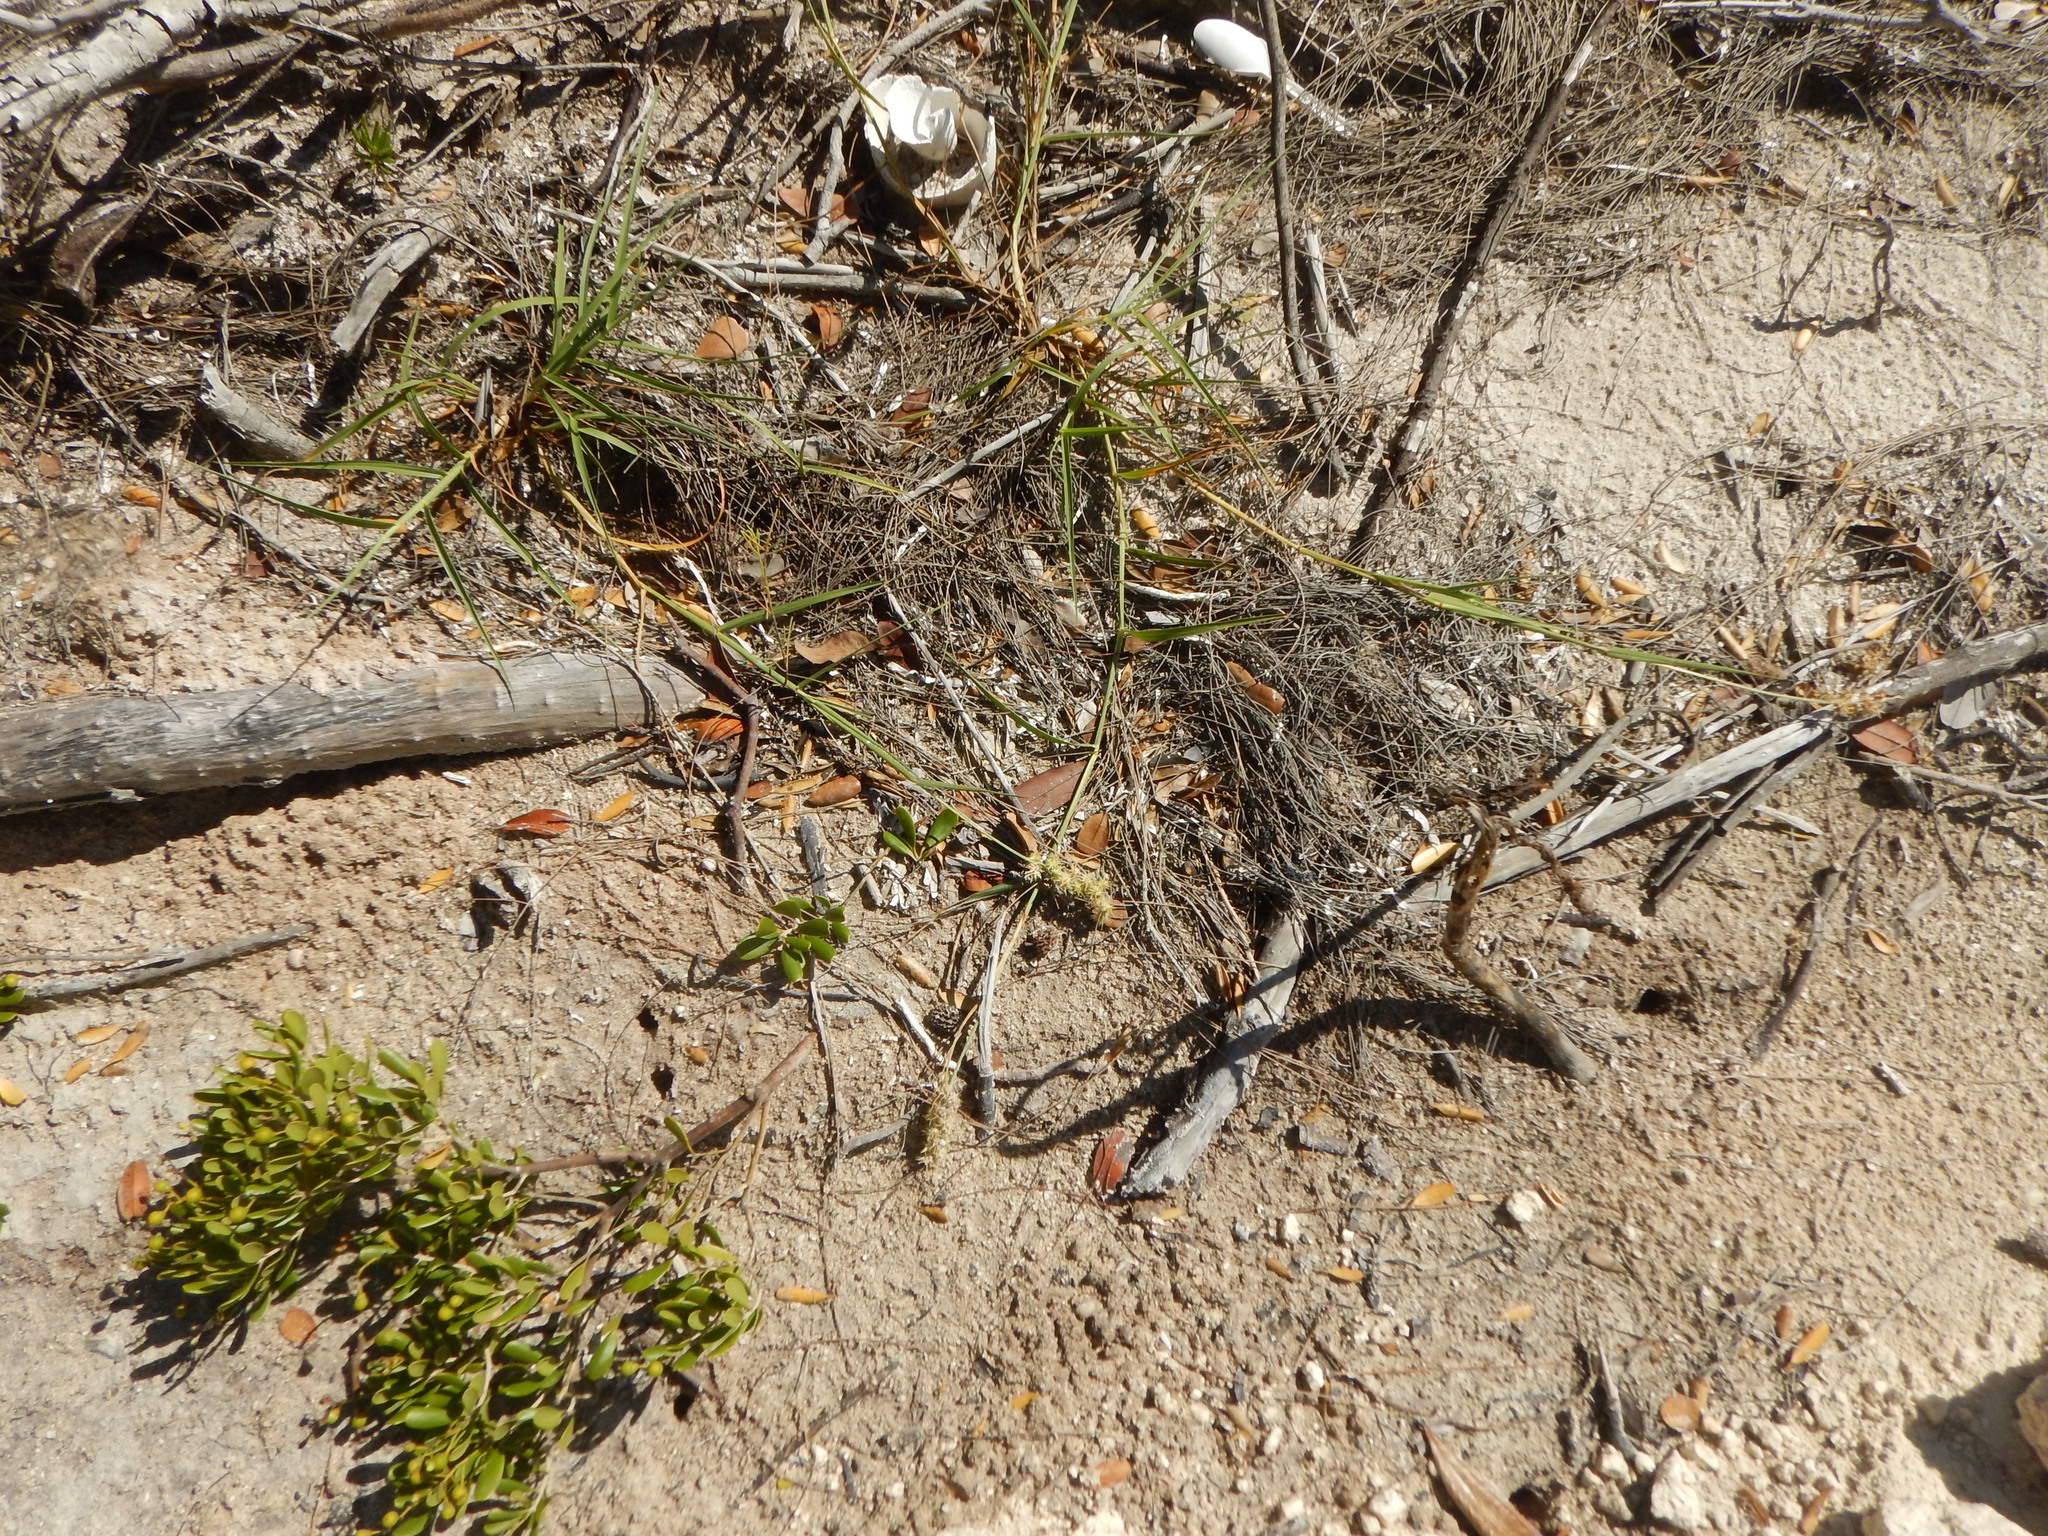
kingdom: Plantae
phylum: Tracheophyta
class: Liliopsida
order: Poales
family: Poaceae
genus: Cenchrus
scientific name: Cenchrus spinifex
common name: Coast sandbur
